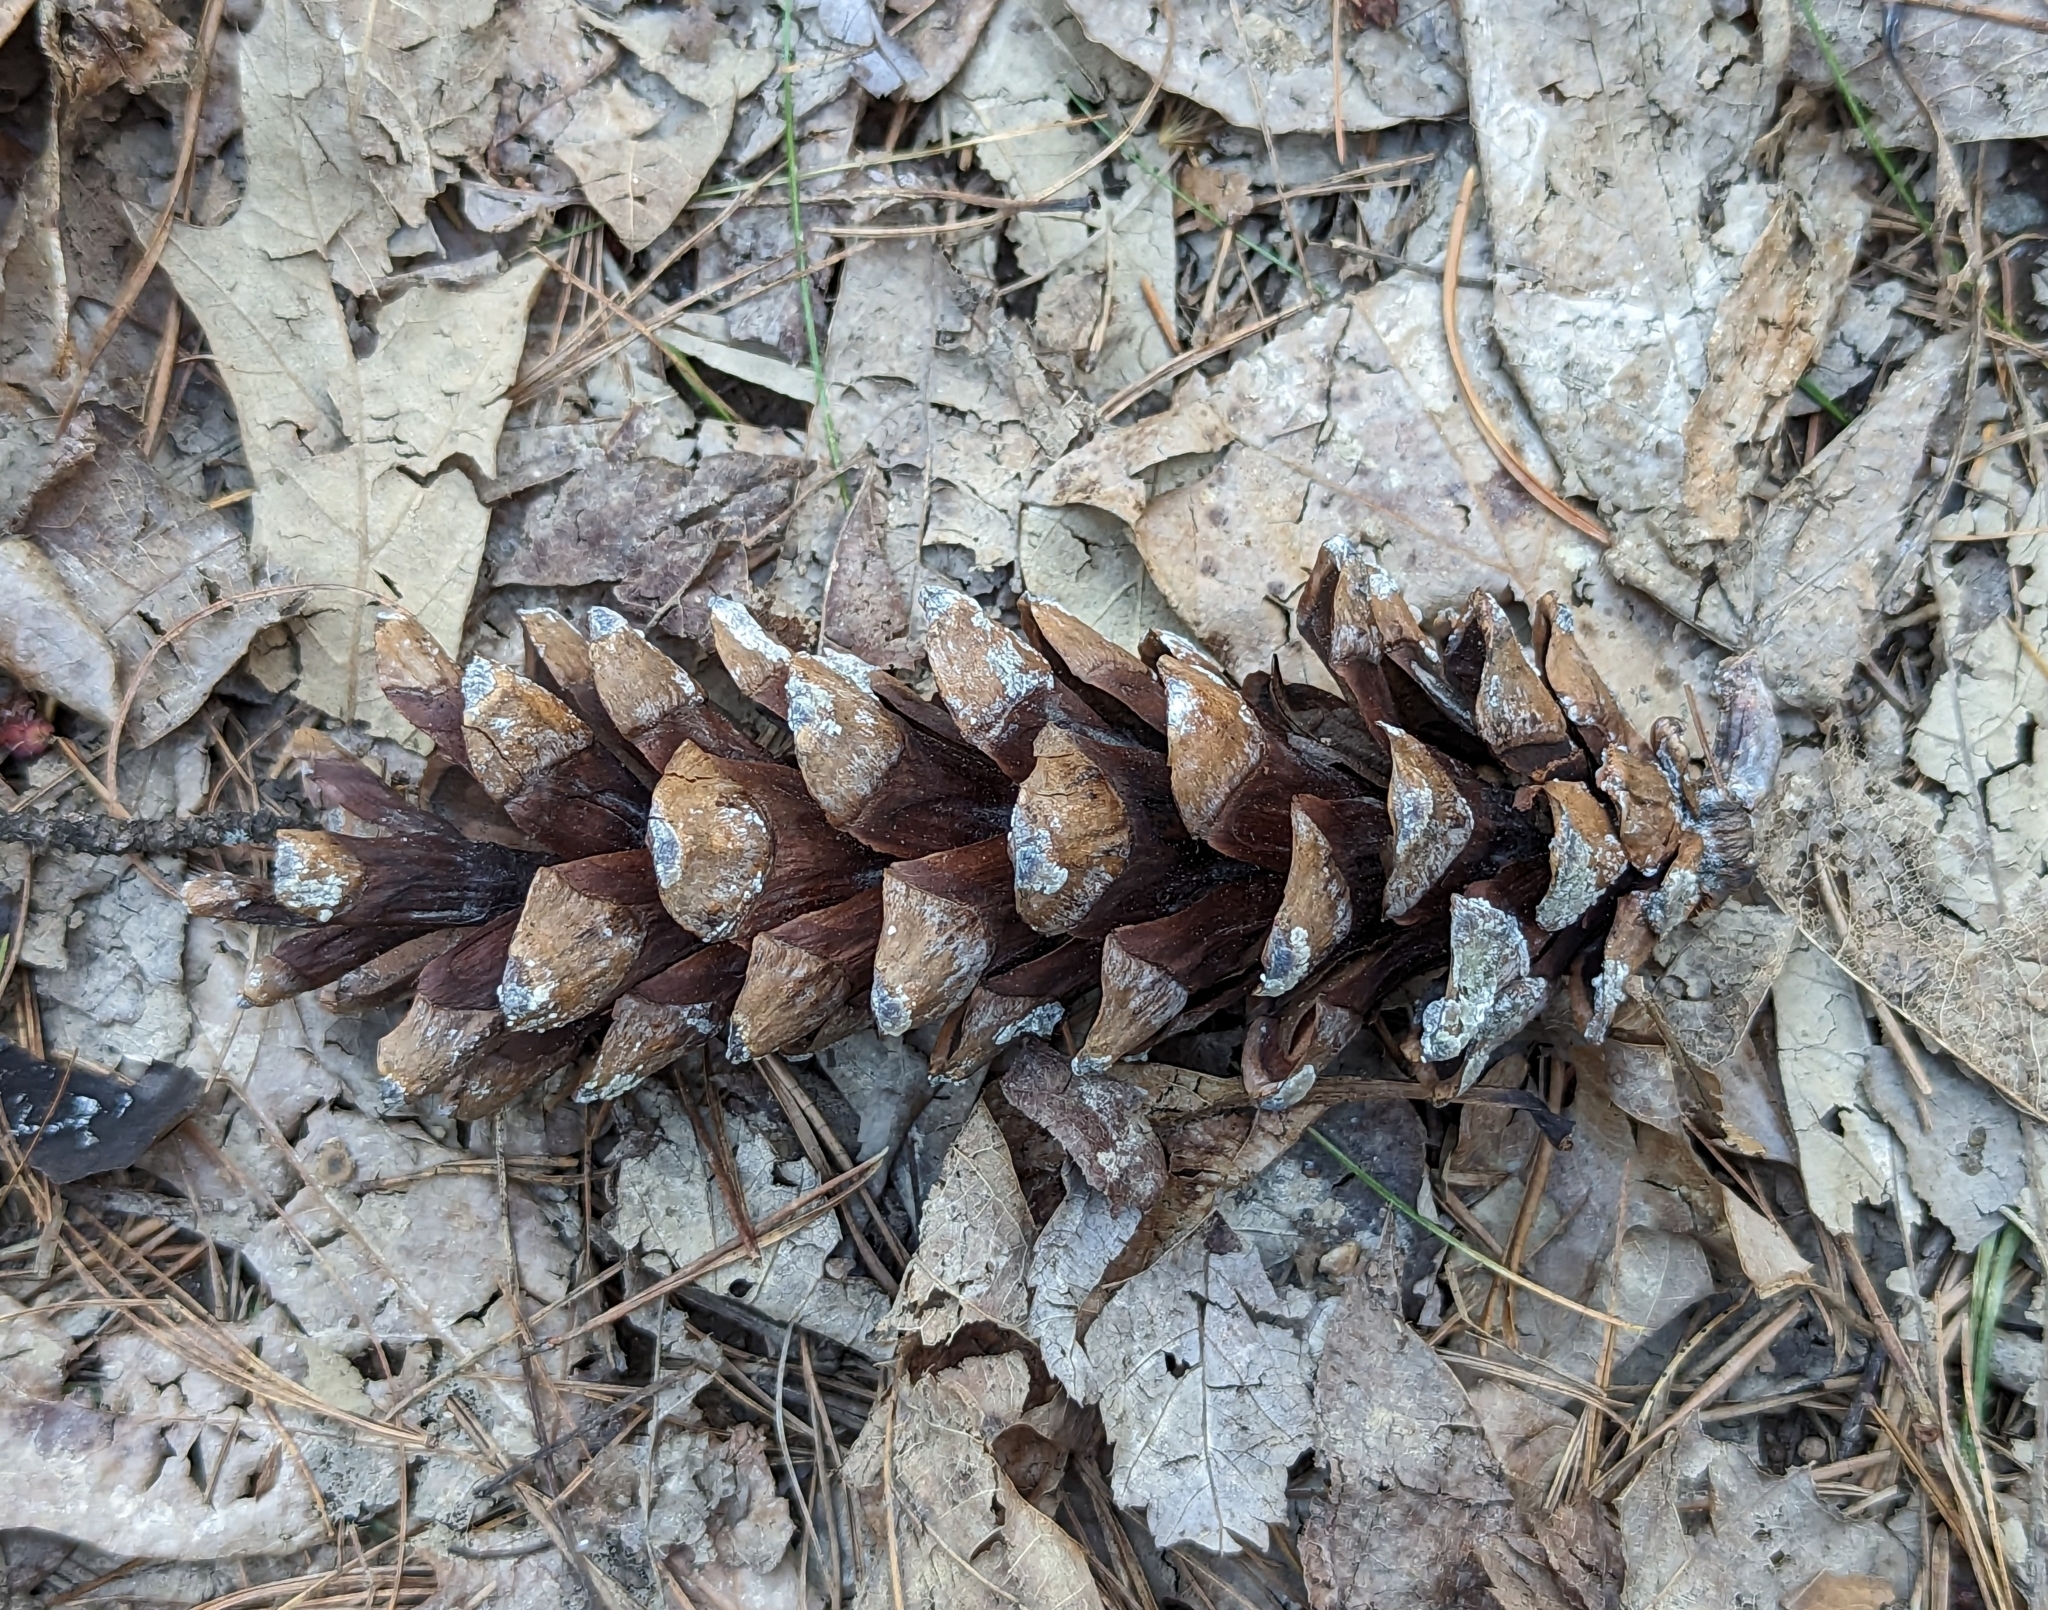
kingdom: Plantae
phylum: Tracheophyta
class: Pinopsida
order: Pinales
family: Pinaceae
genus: Pinus
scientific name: Pinus strobus
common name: Weymouth pine
